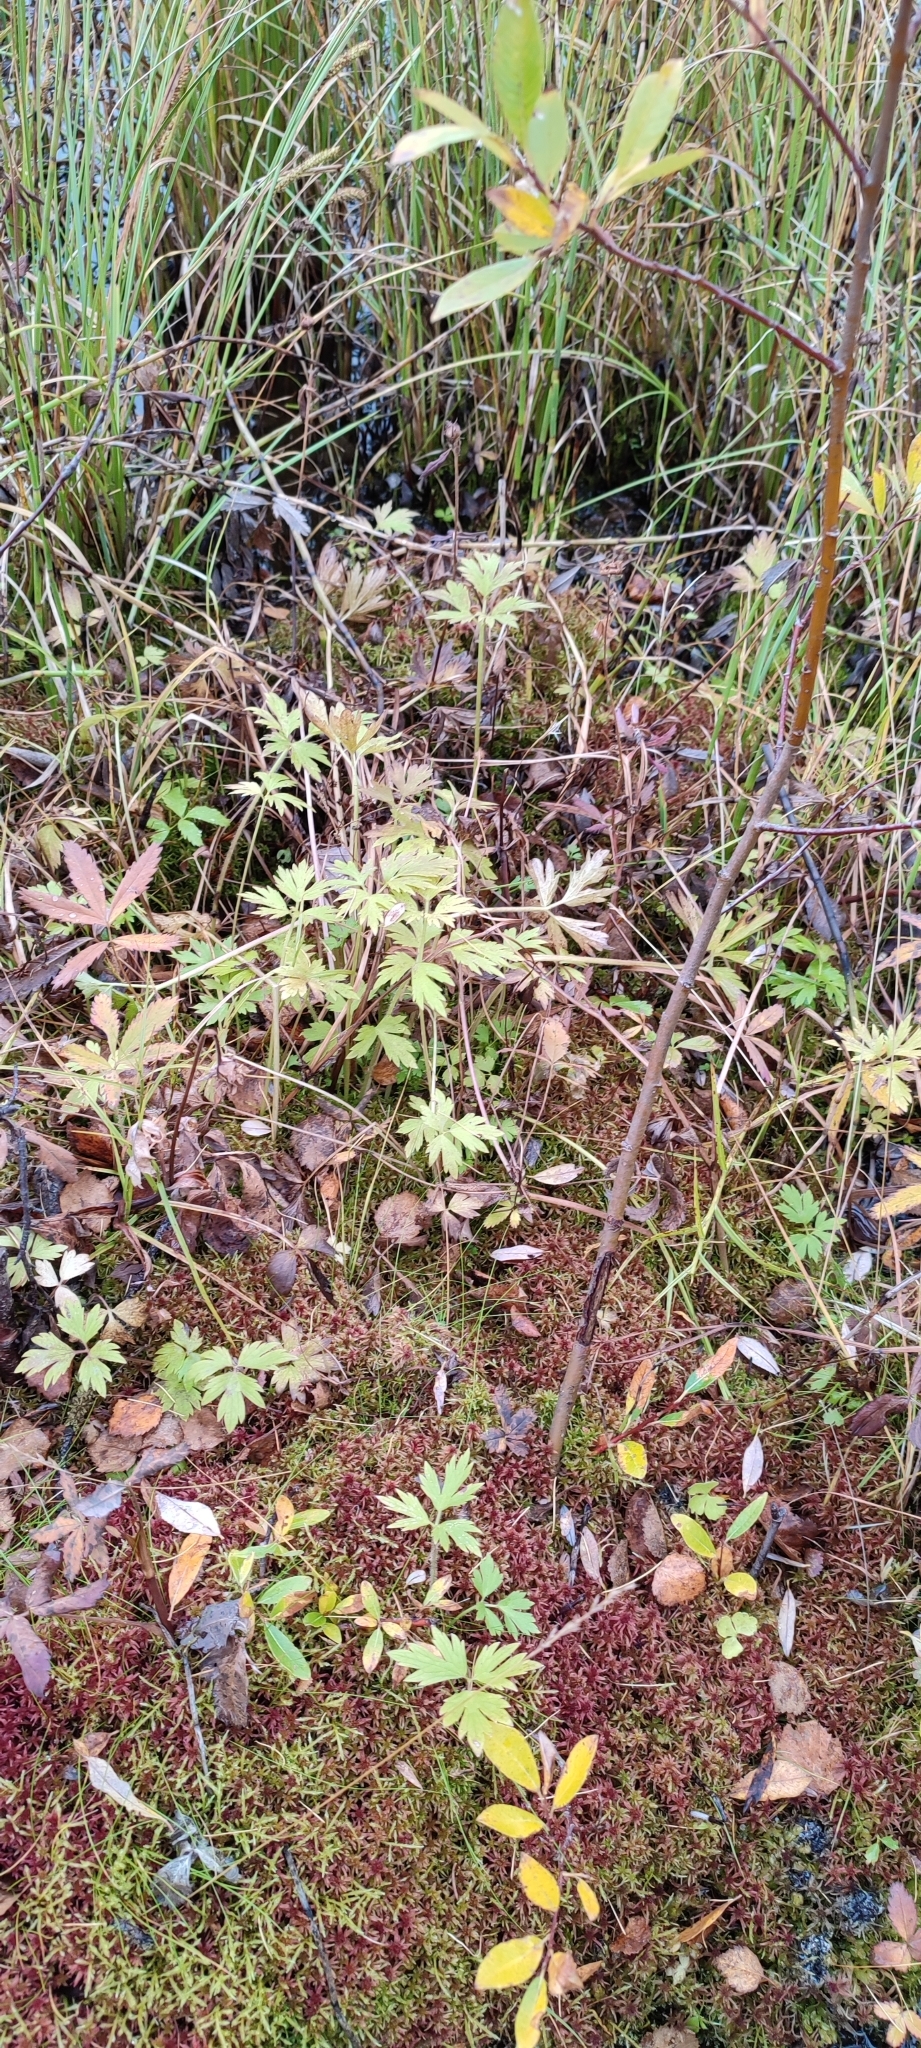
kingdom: Plantae
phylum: Tracheophyta
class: Magnoliopsida
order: Ranunculales
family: Ranunculaceae
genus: Ranunculus
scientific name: Ranunculus repens
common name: Creeping buttercup
